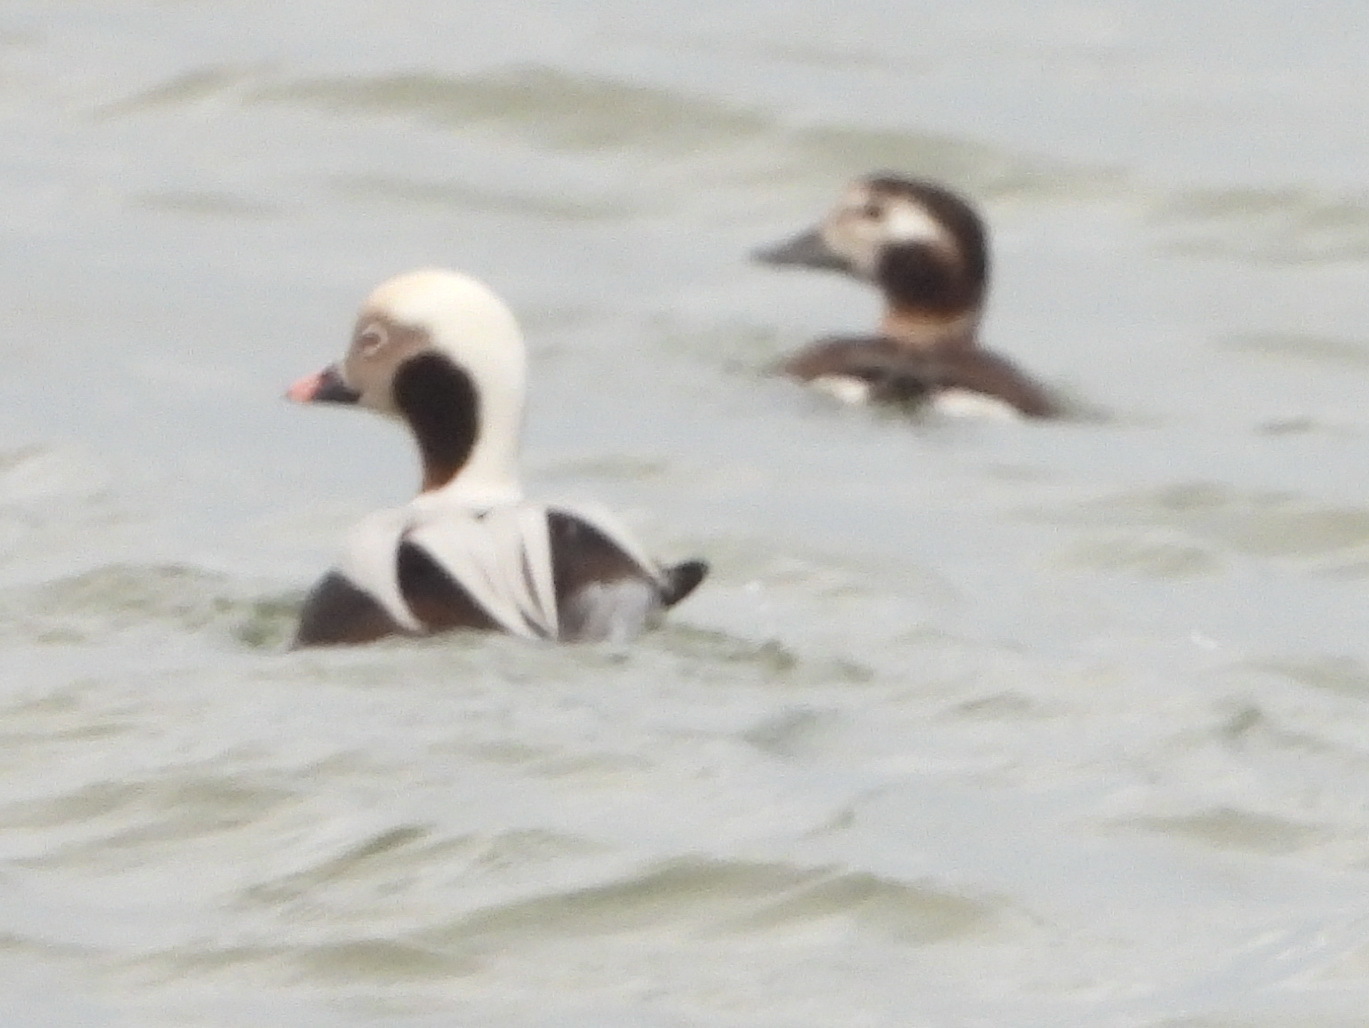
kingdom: Animalia
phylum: Chordata
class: Aves
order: Anseriformes
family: Anatidae
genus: Clangula
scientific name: Clangula hyemalis
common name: Long-tailed duck
